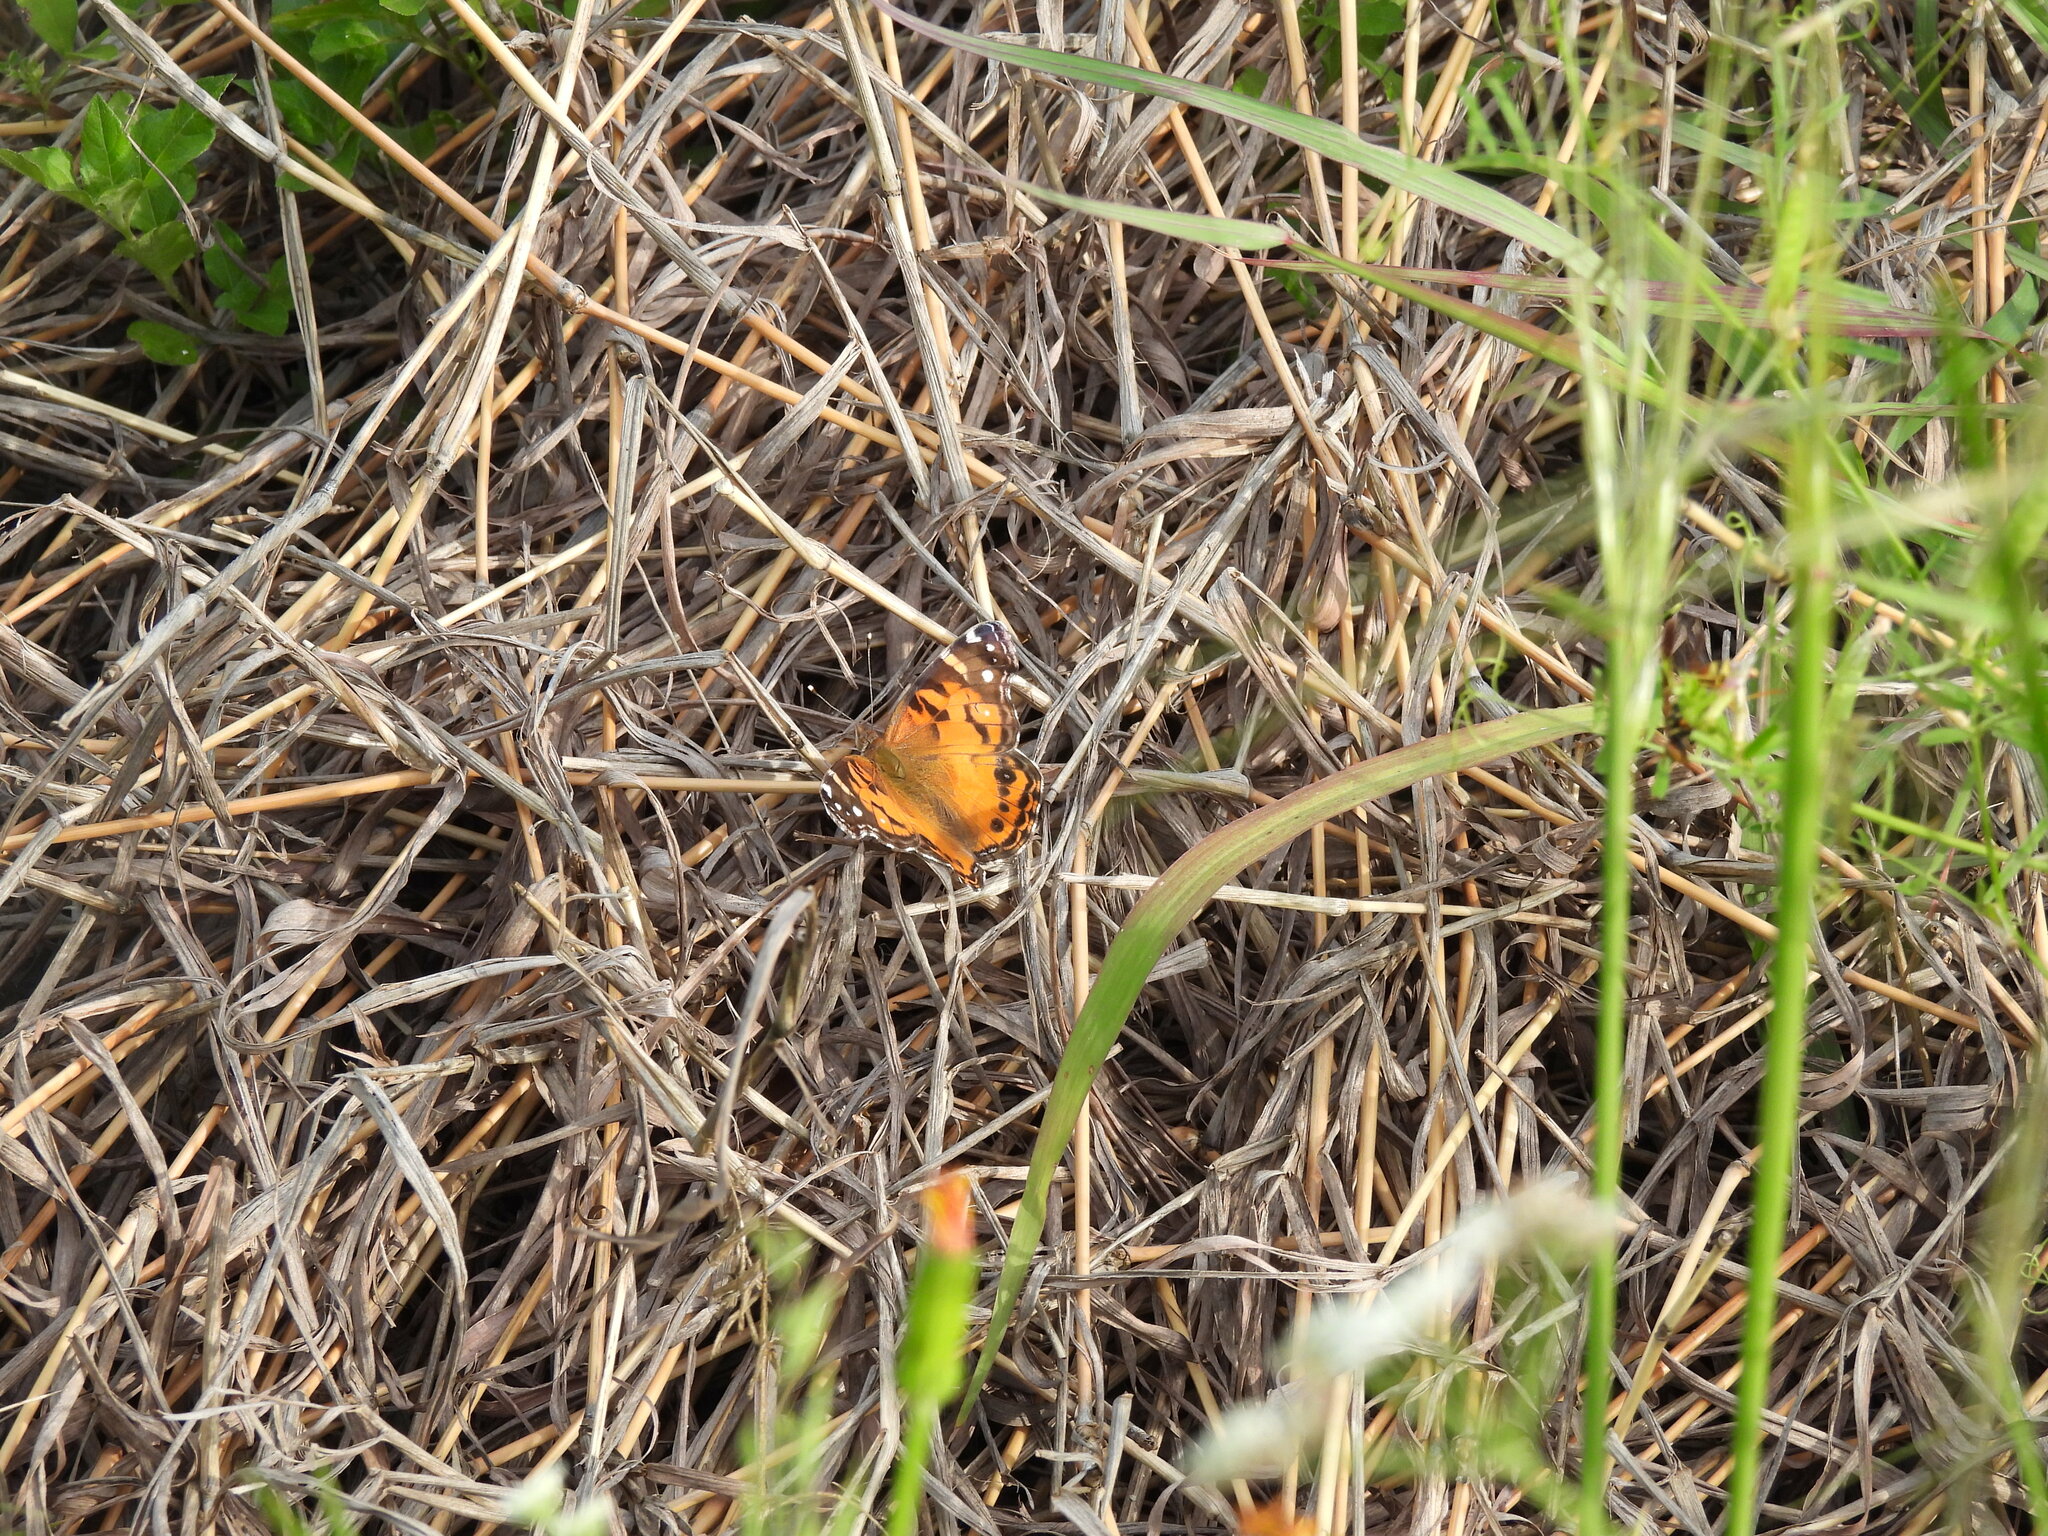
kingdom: Animalia
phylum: Arthropoda
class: Insecta
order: Lepidoptera
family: Nymphalidae
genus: Vanessa
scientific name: Vanessa virginiensis
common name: American lady
